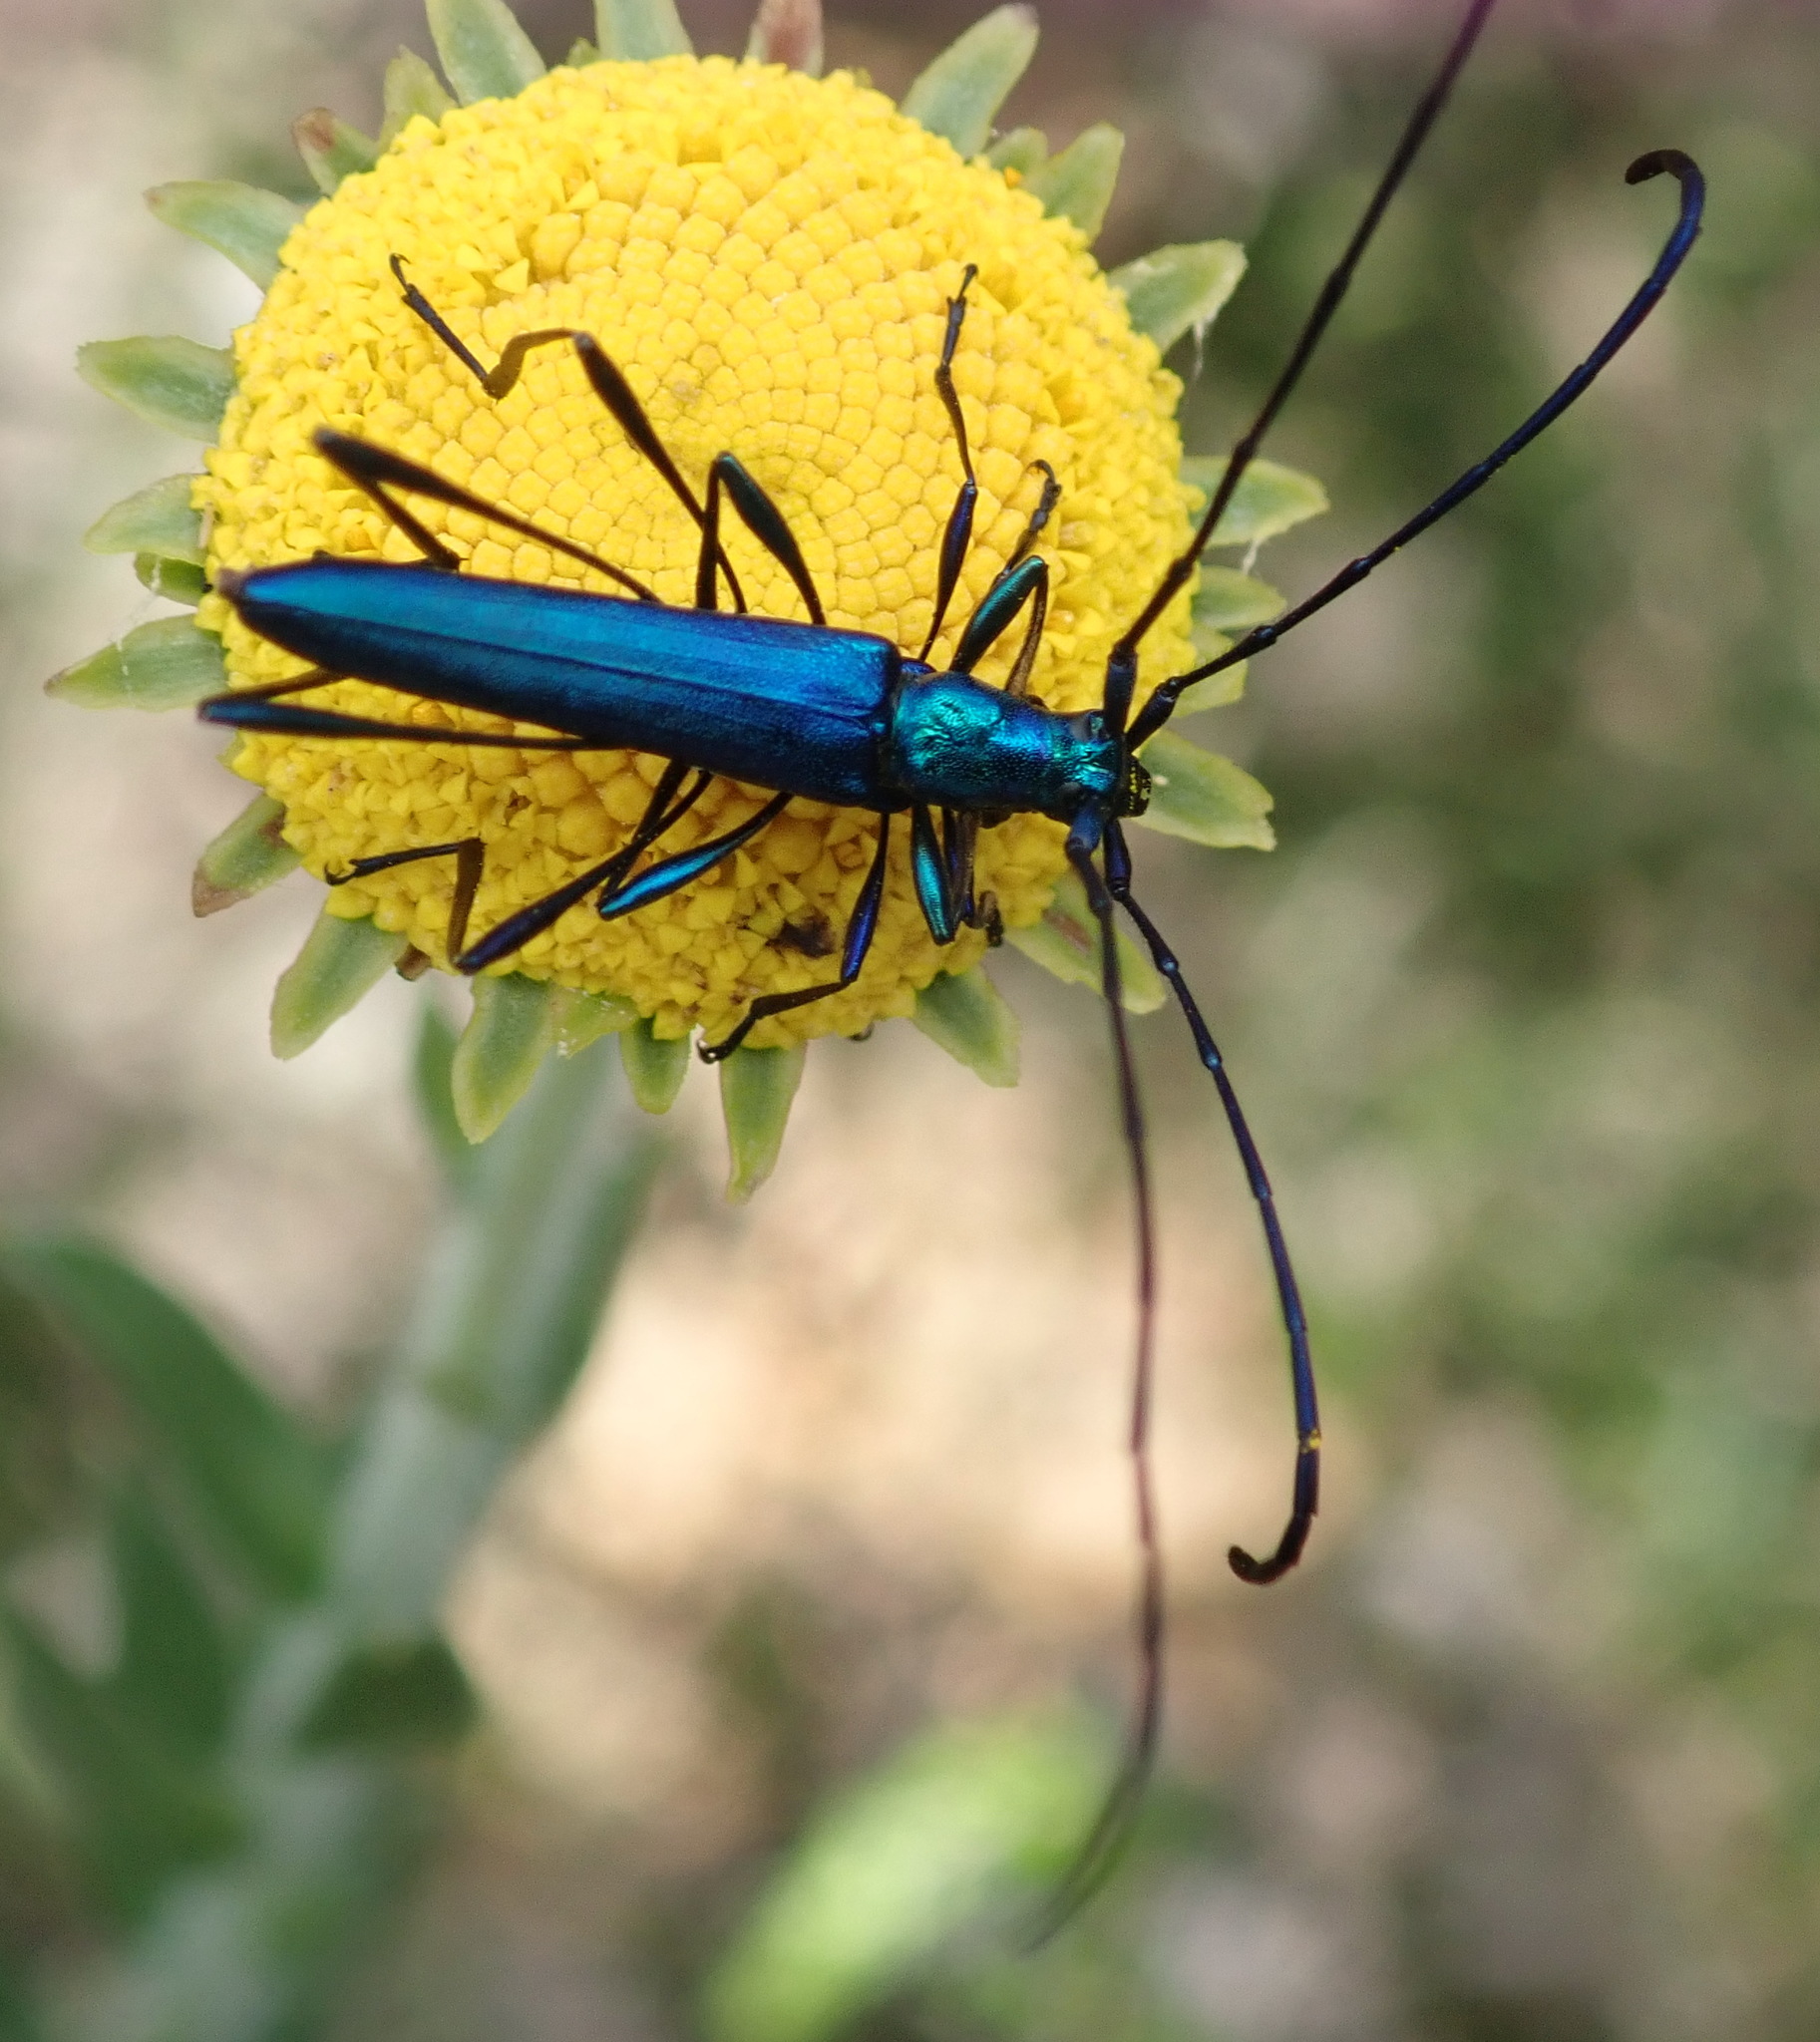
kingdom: Animalia
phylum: Arthropoda
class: Insecta
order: Coleoptera
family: Cerambycidae
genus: Promeces
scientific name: Promeces longipes
